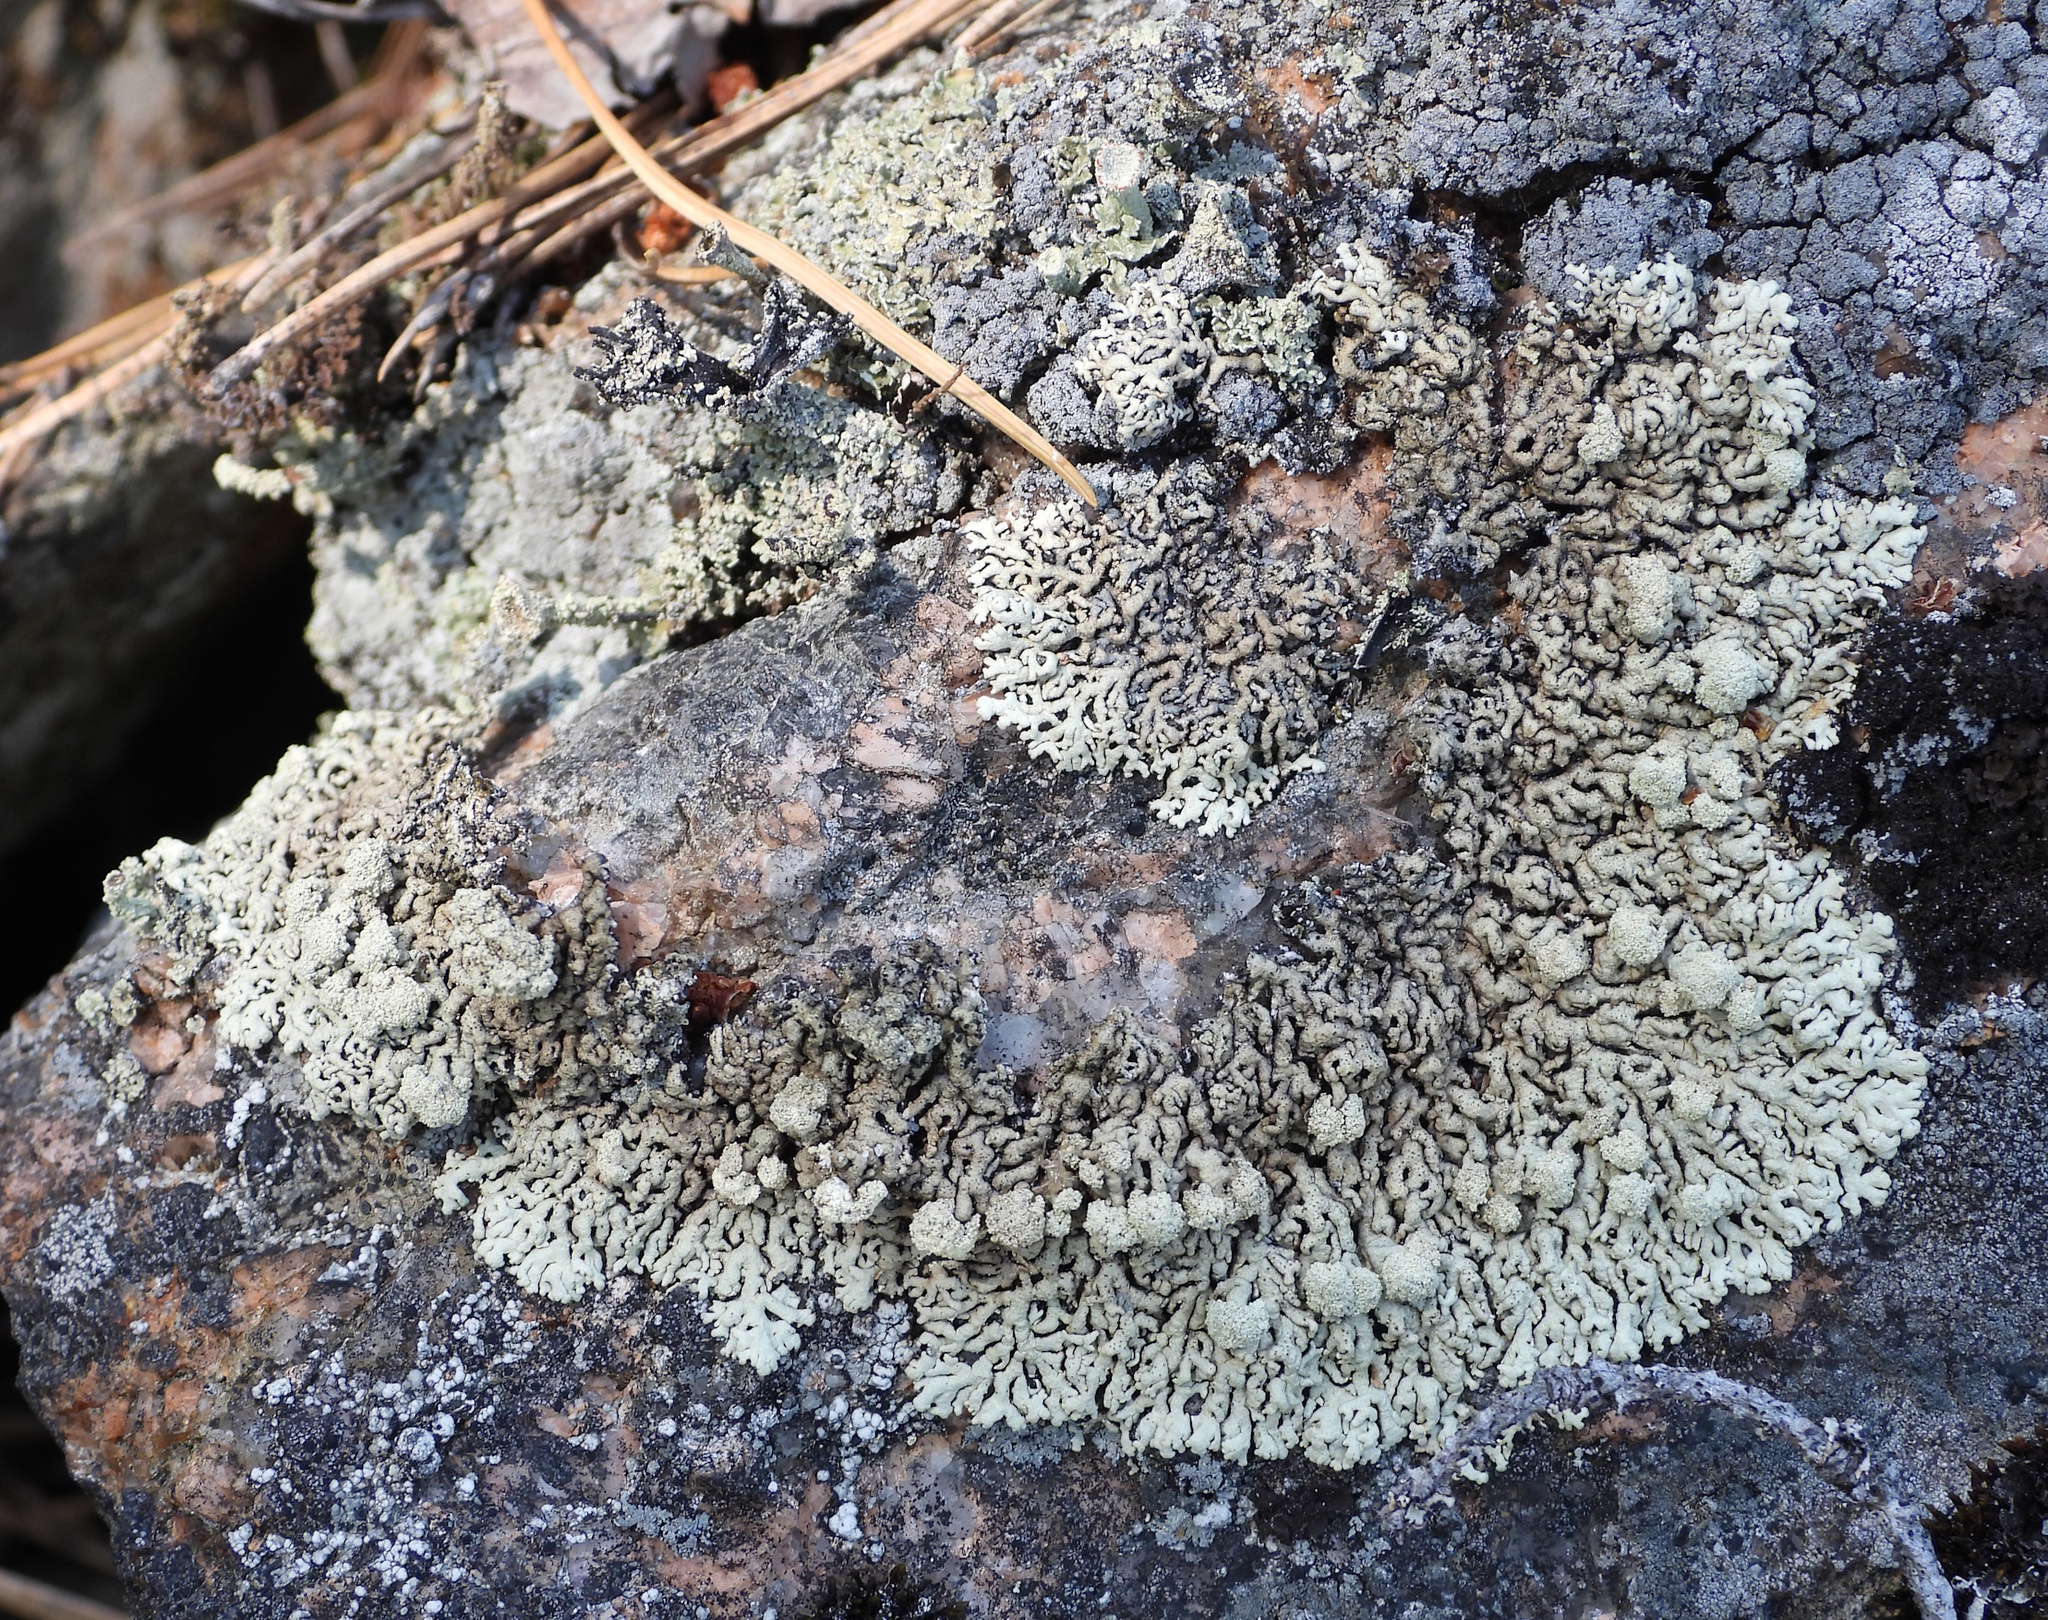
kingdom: Fungi
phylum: Ascomycota
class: Lecanoromycetes
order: Lecanorales
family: Parmeliaceae
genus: Arctoparmelia
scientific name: Arctoparmelia incurva
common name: Bent ring lichen
